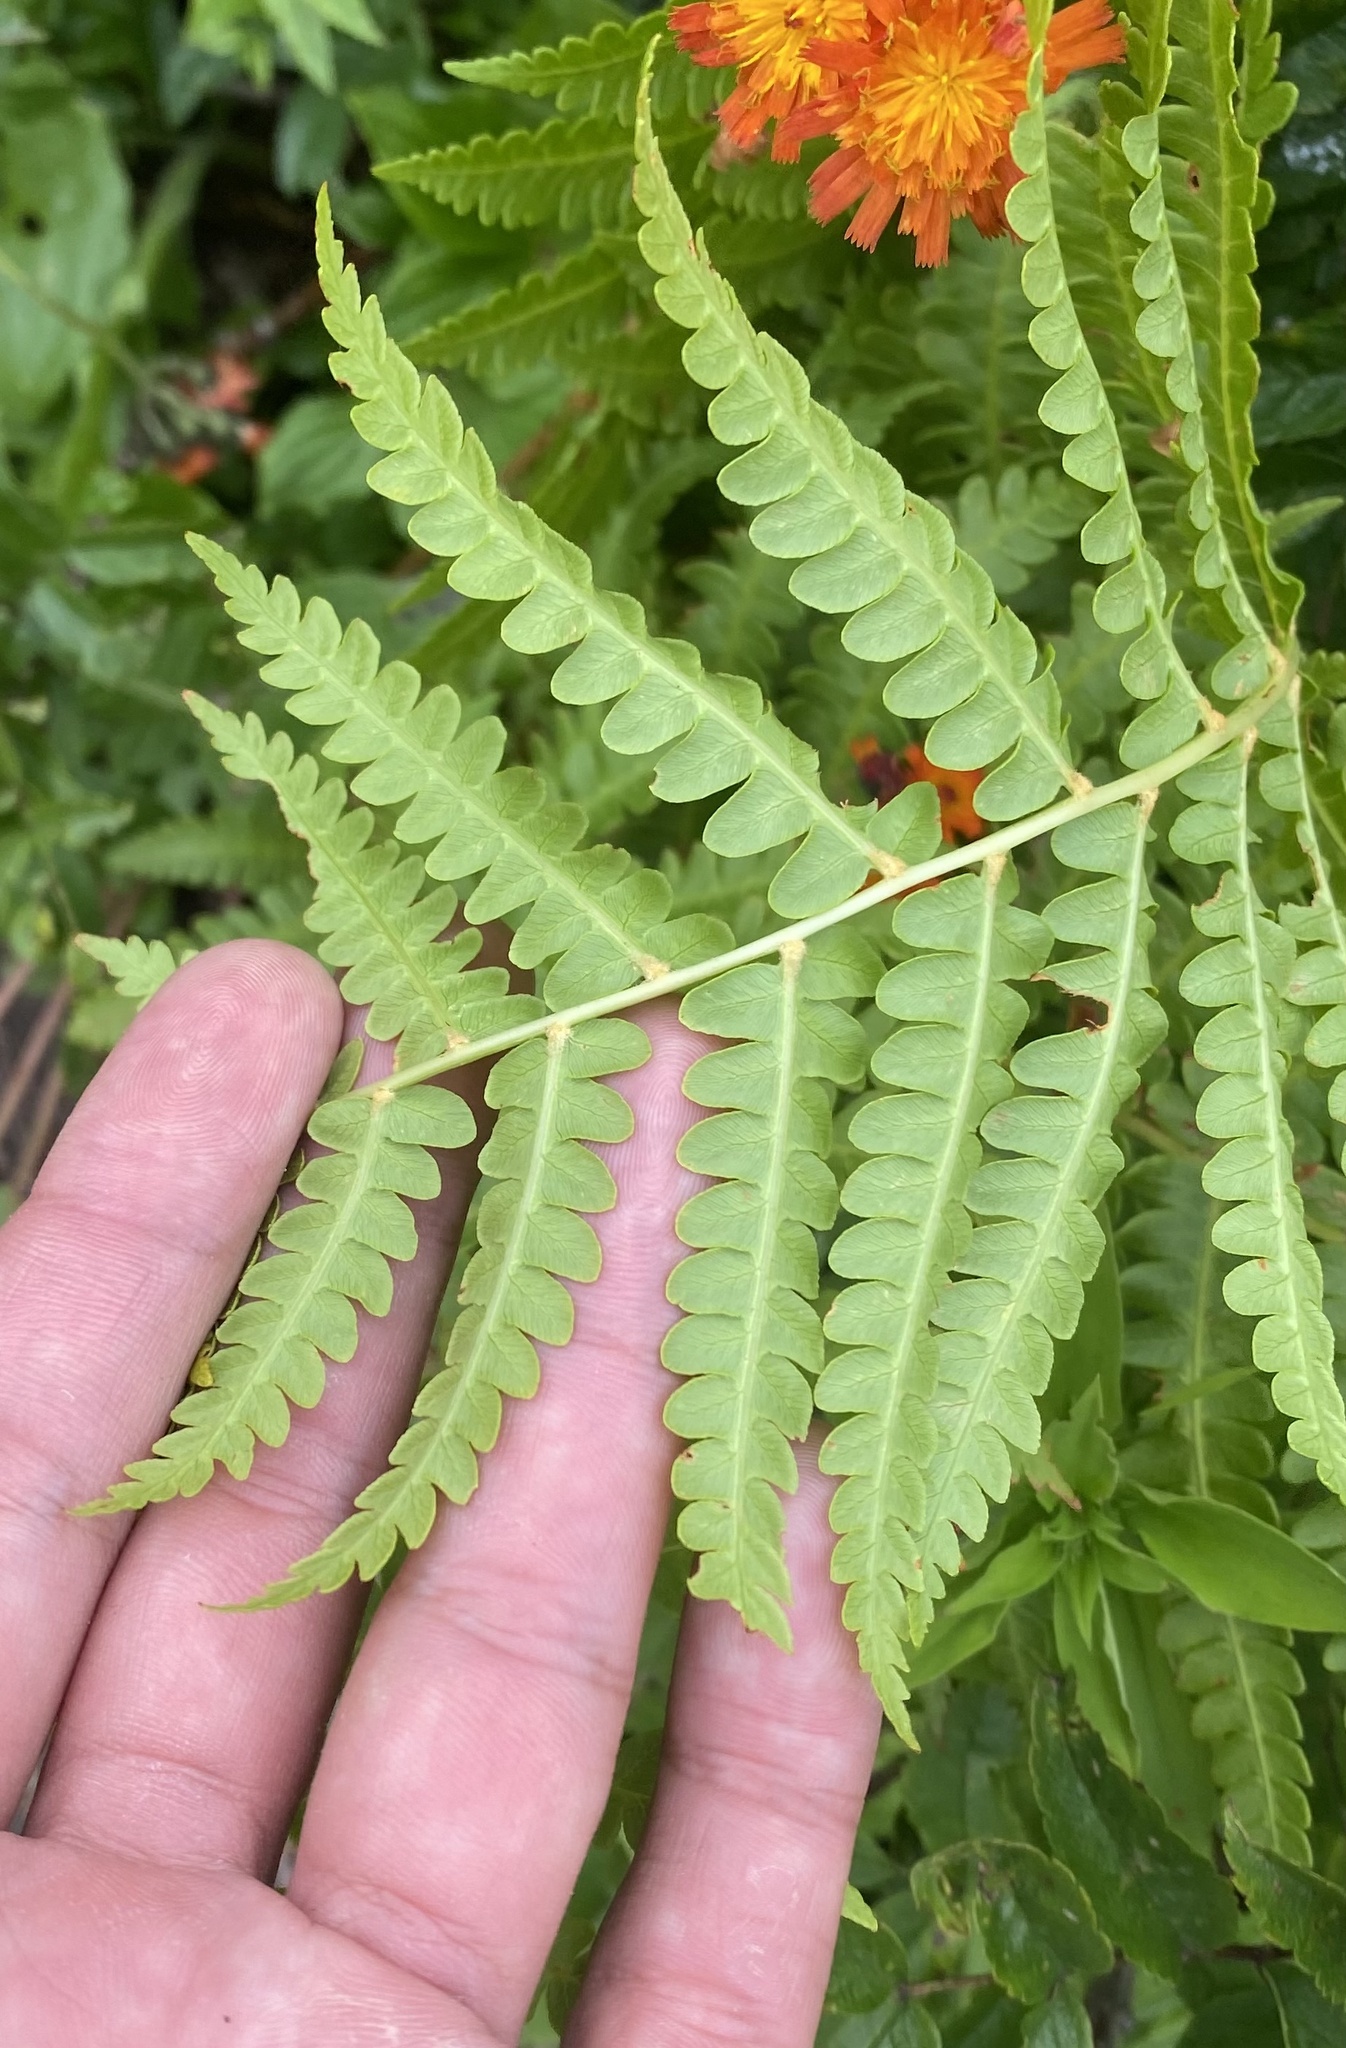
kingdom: Plantae
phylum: Tracheophyta
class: Polypodiopsida
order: Osmundales
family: Osmundaceae
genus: Osmundastrum
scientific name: Osmundastrum cinnamomeum
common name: Cinnamon fern
